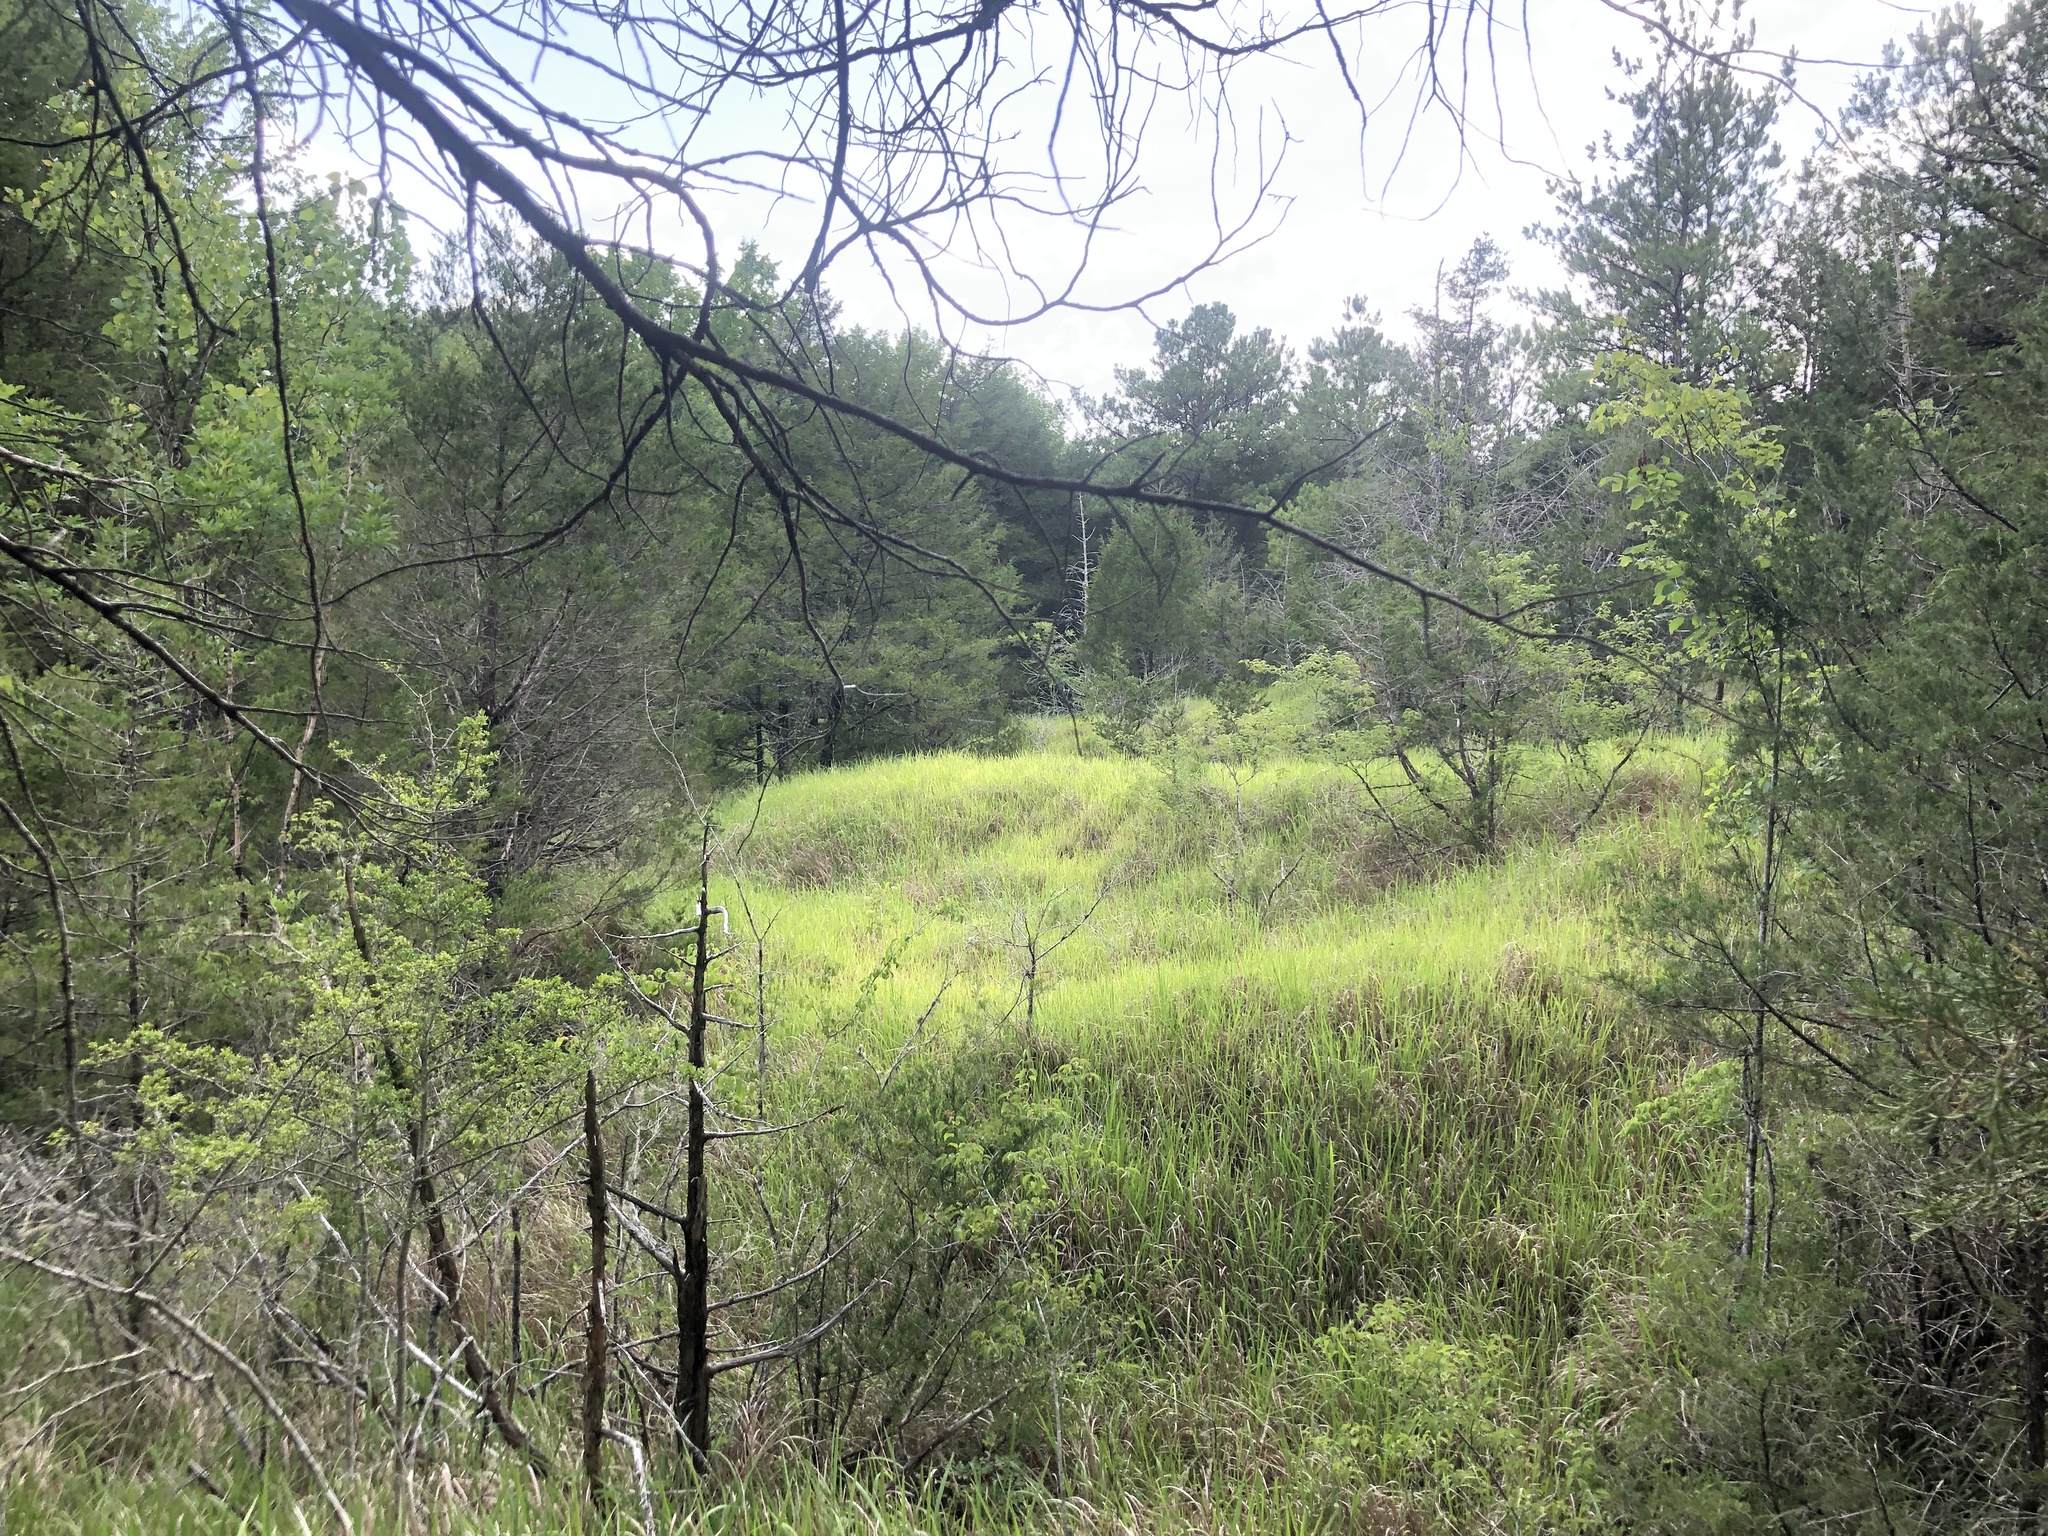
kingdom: Plantae
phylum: Tracheophyta
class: Liliopsida
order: Poales
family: Poaceae
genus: Imperata
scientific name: Imperata cylindrica
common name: Cogongrass
